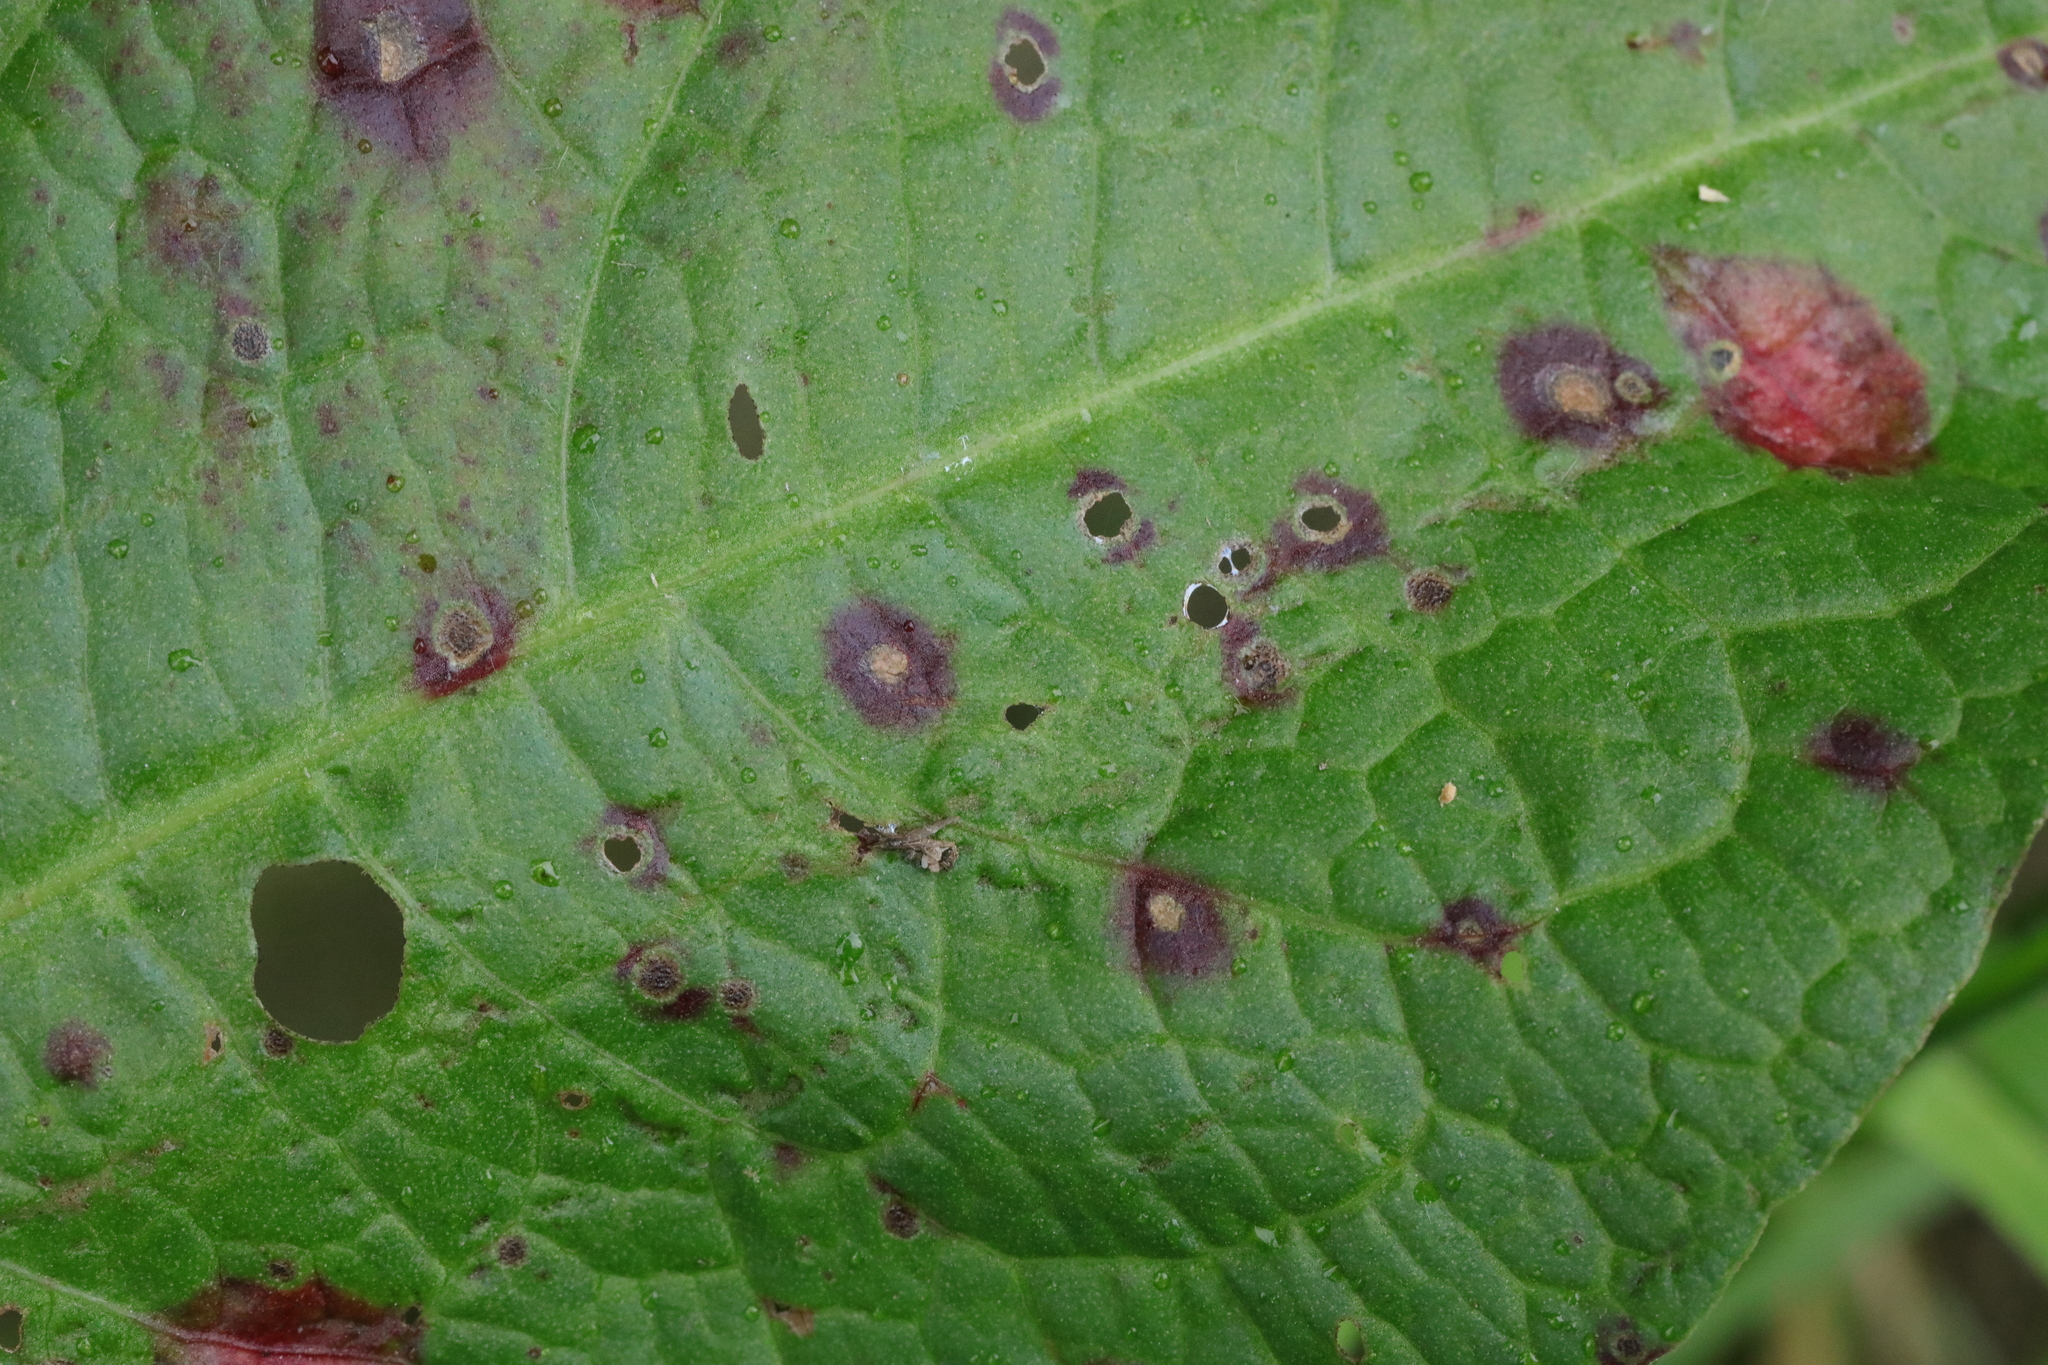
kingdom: Fungi
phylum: Ascomycota
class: Dothideomycetes
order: Mycosphaerellales
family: Mycosphaerellaceae
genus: Ramularia
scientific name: Ramularia rubella
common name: Red dock spot
